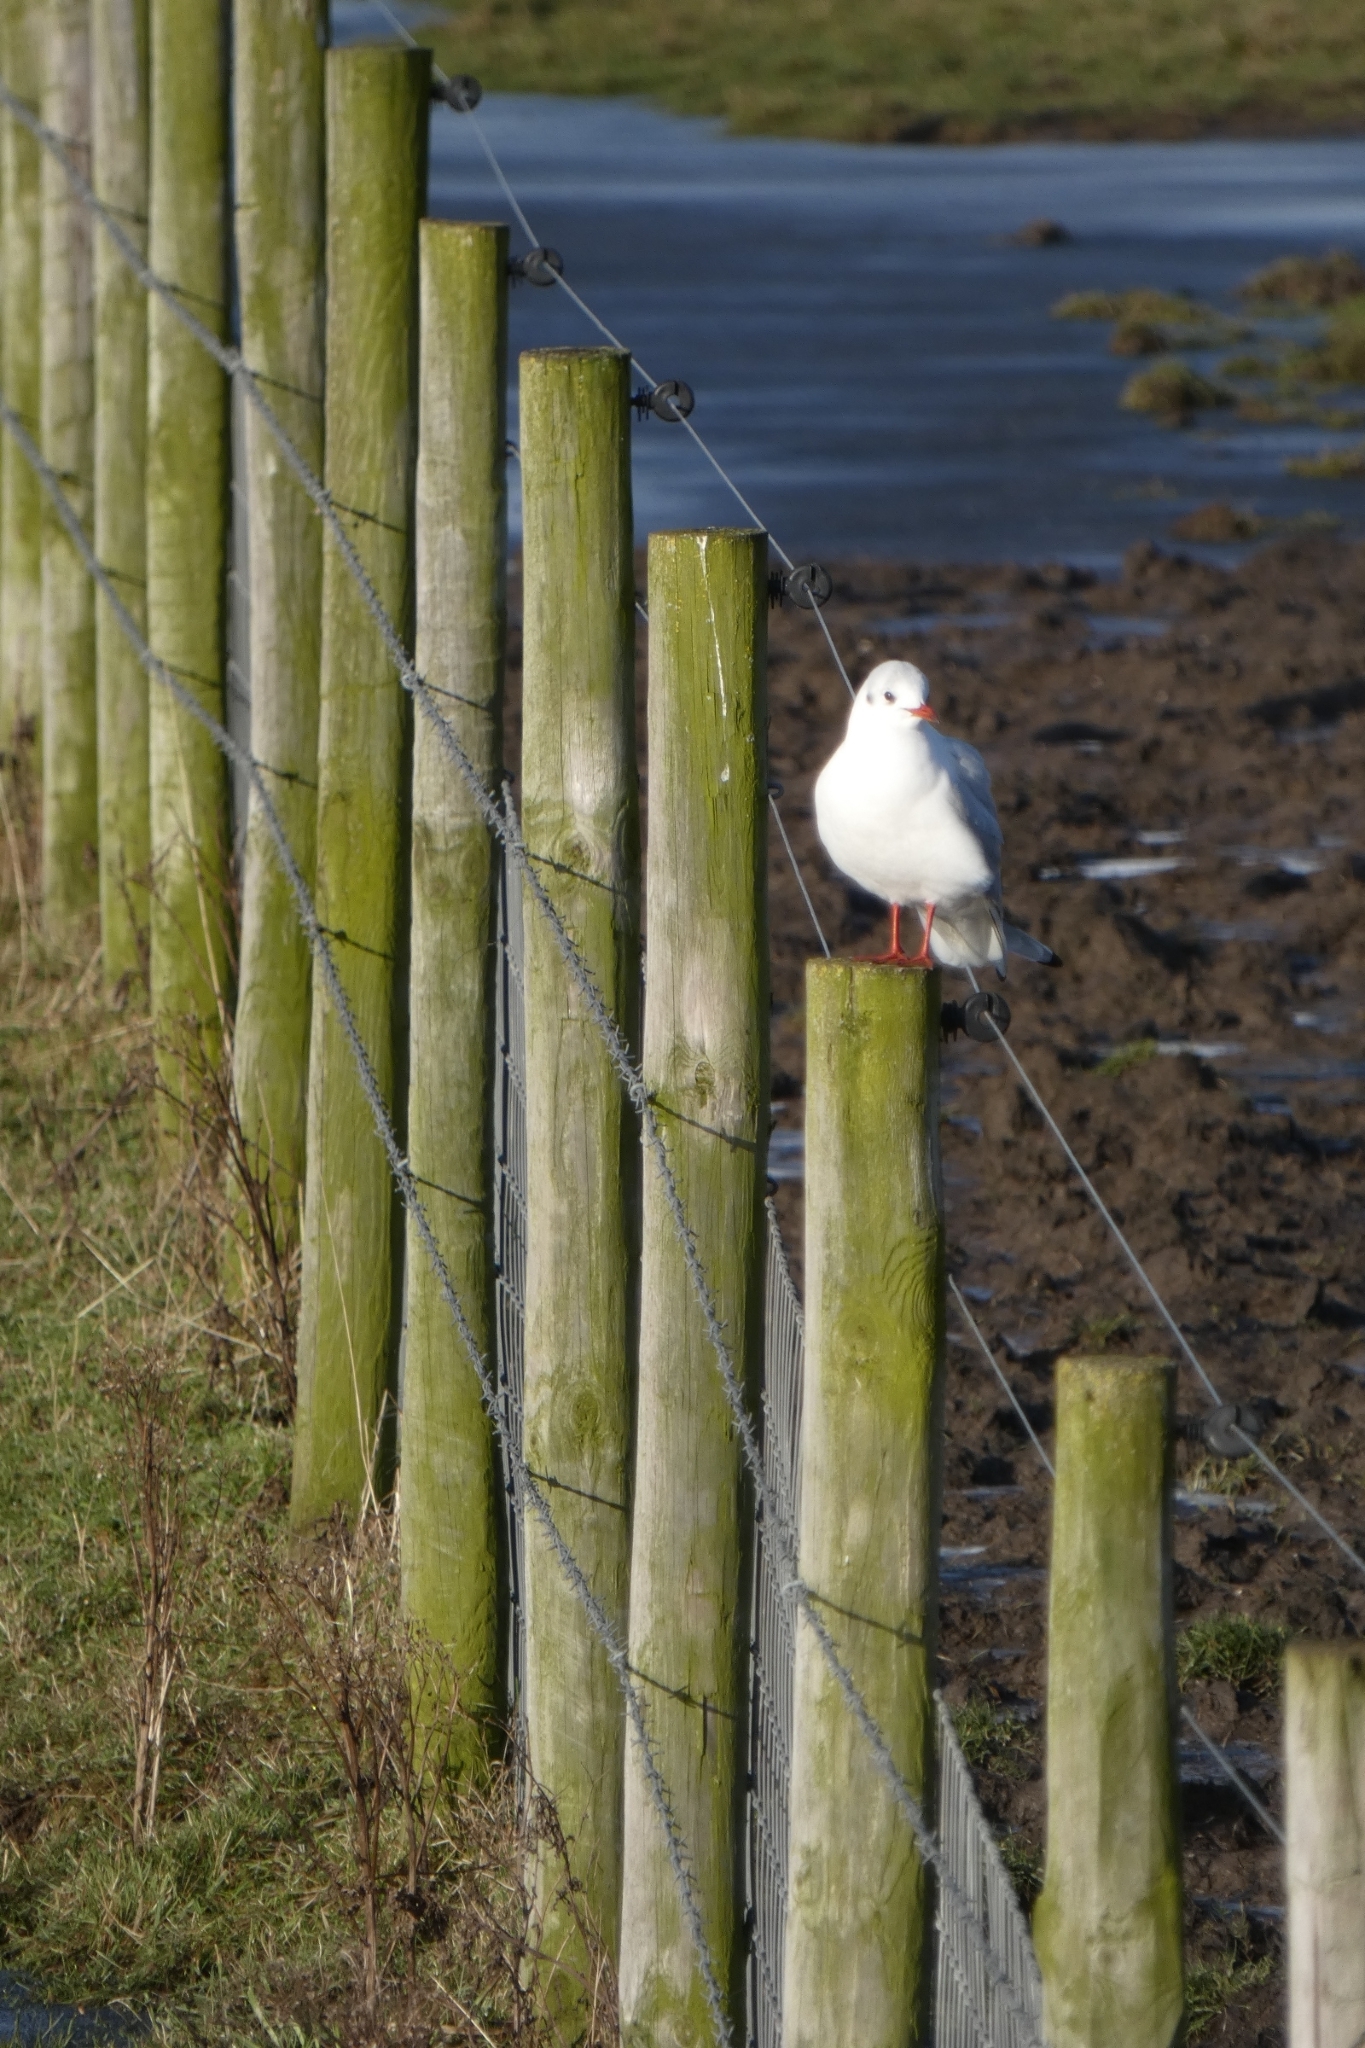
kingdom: Animalia
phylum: Chordata
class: Aves
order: Charadriiformes
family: Laridae
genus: Chroicocephalus
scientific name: Chroicocephalus ridibundus
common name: Black-headed gull
